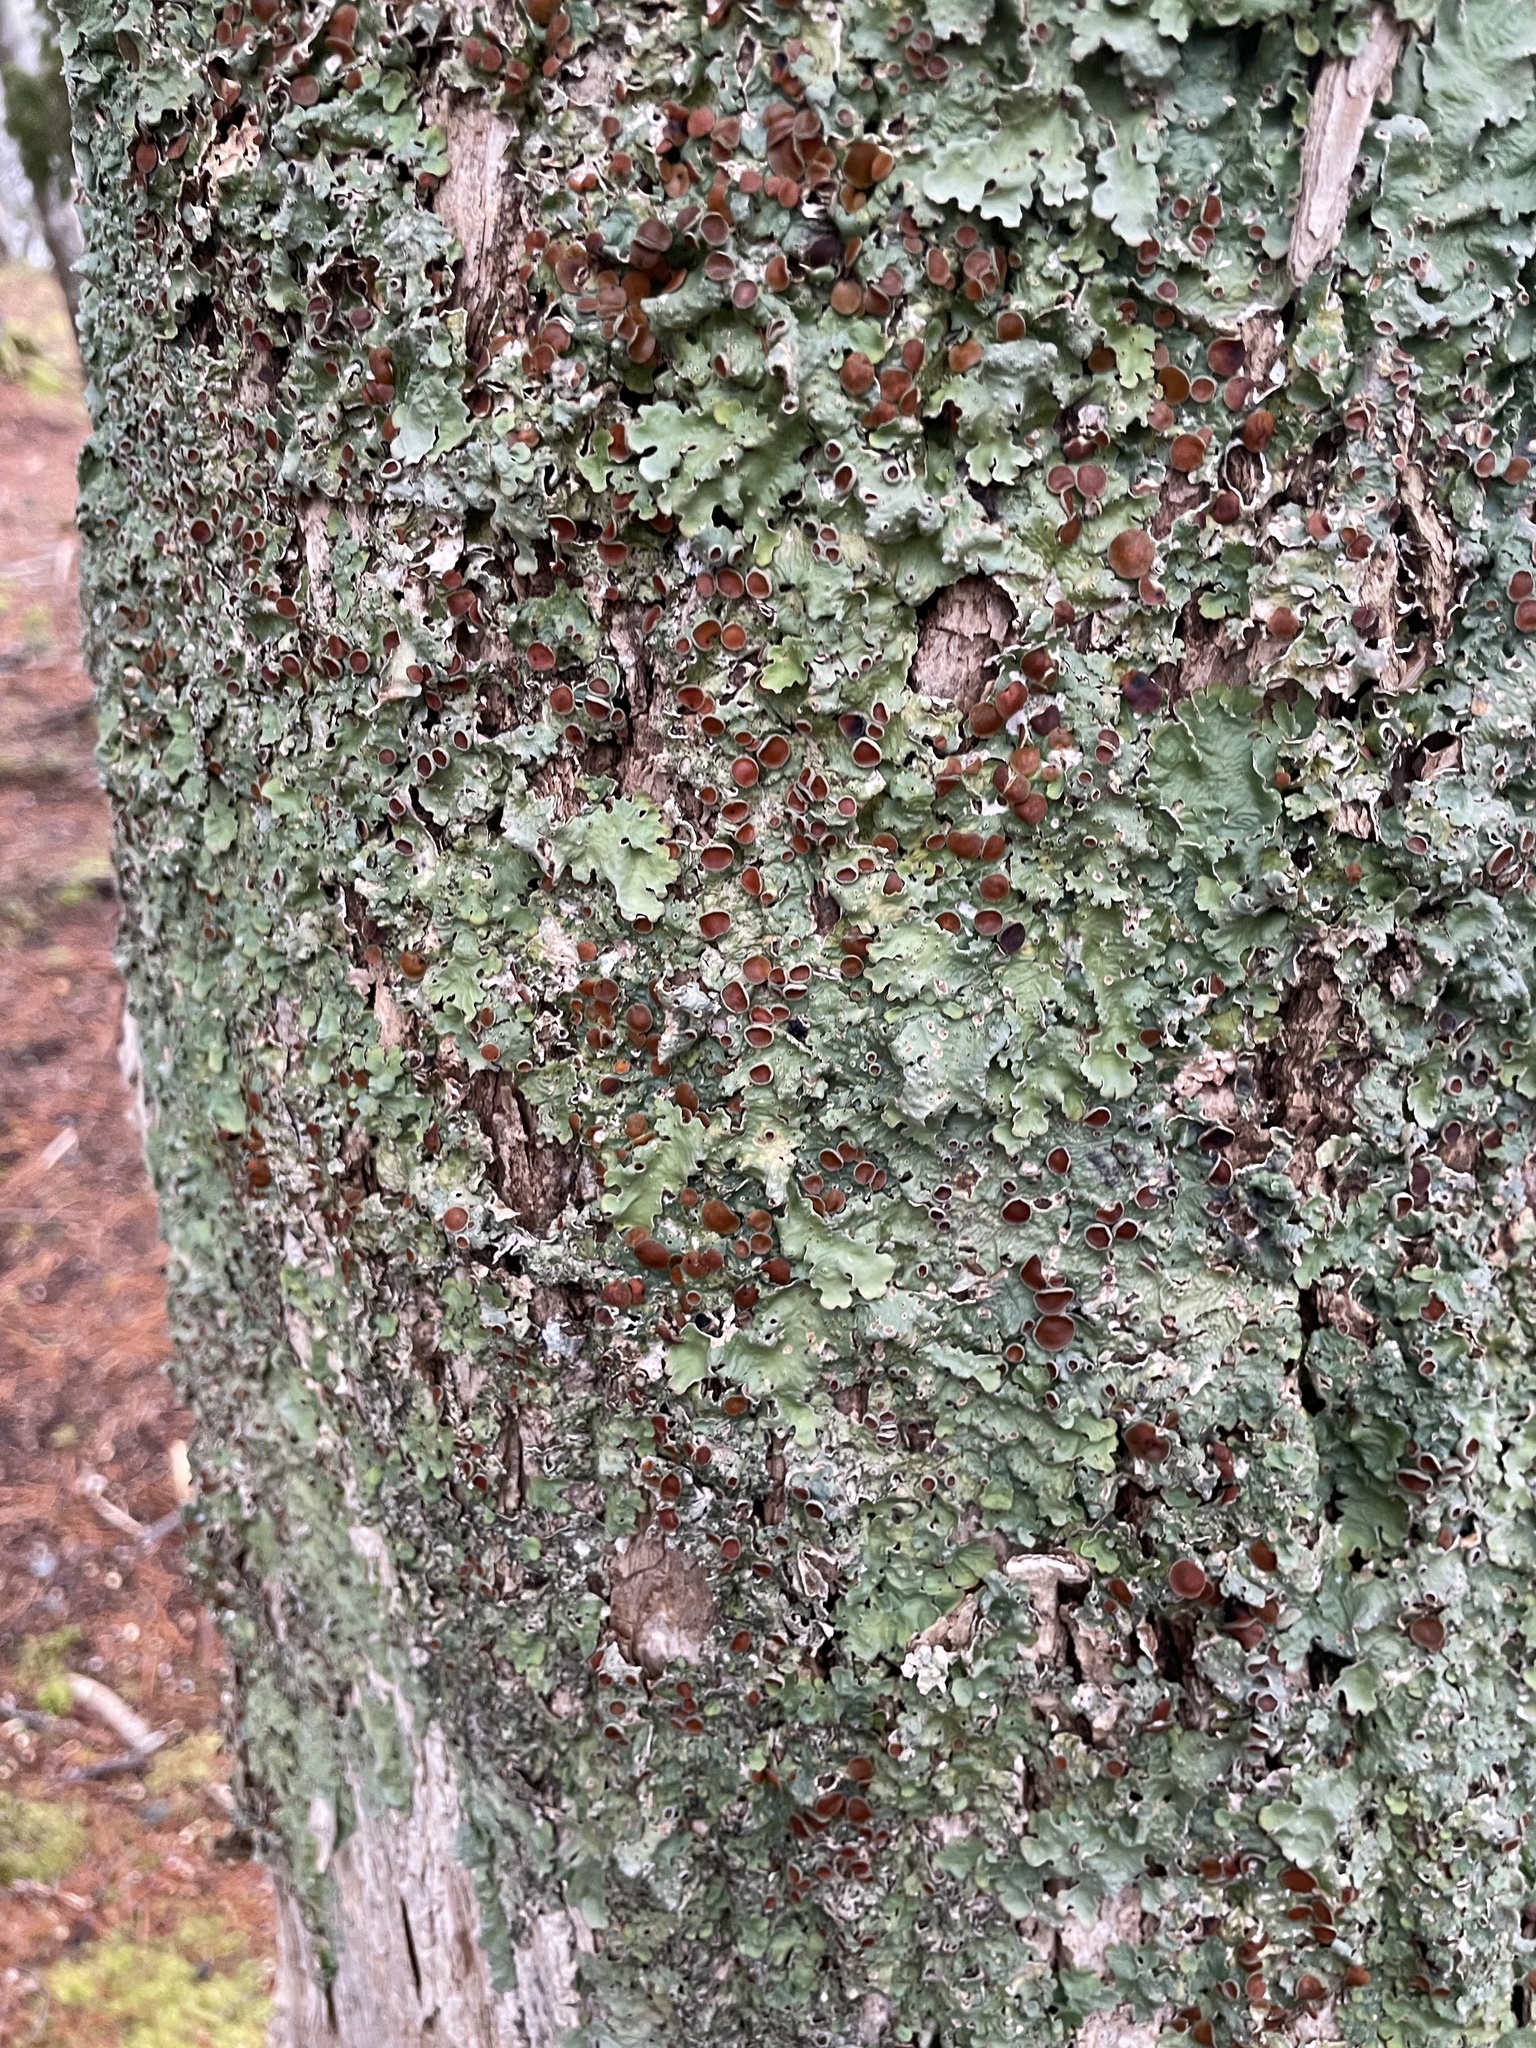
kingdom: Fungi
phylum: Ascomycota
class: Lecanoromycetes
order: Peltigerales
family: Lobariaceae
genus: Ricasolia
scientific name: Ricasolia quercizans
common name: Smooth lungwort
